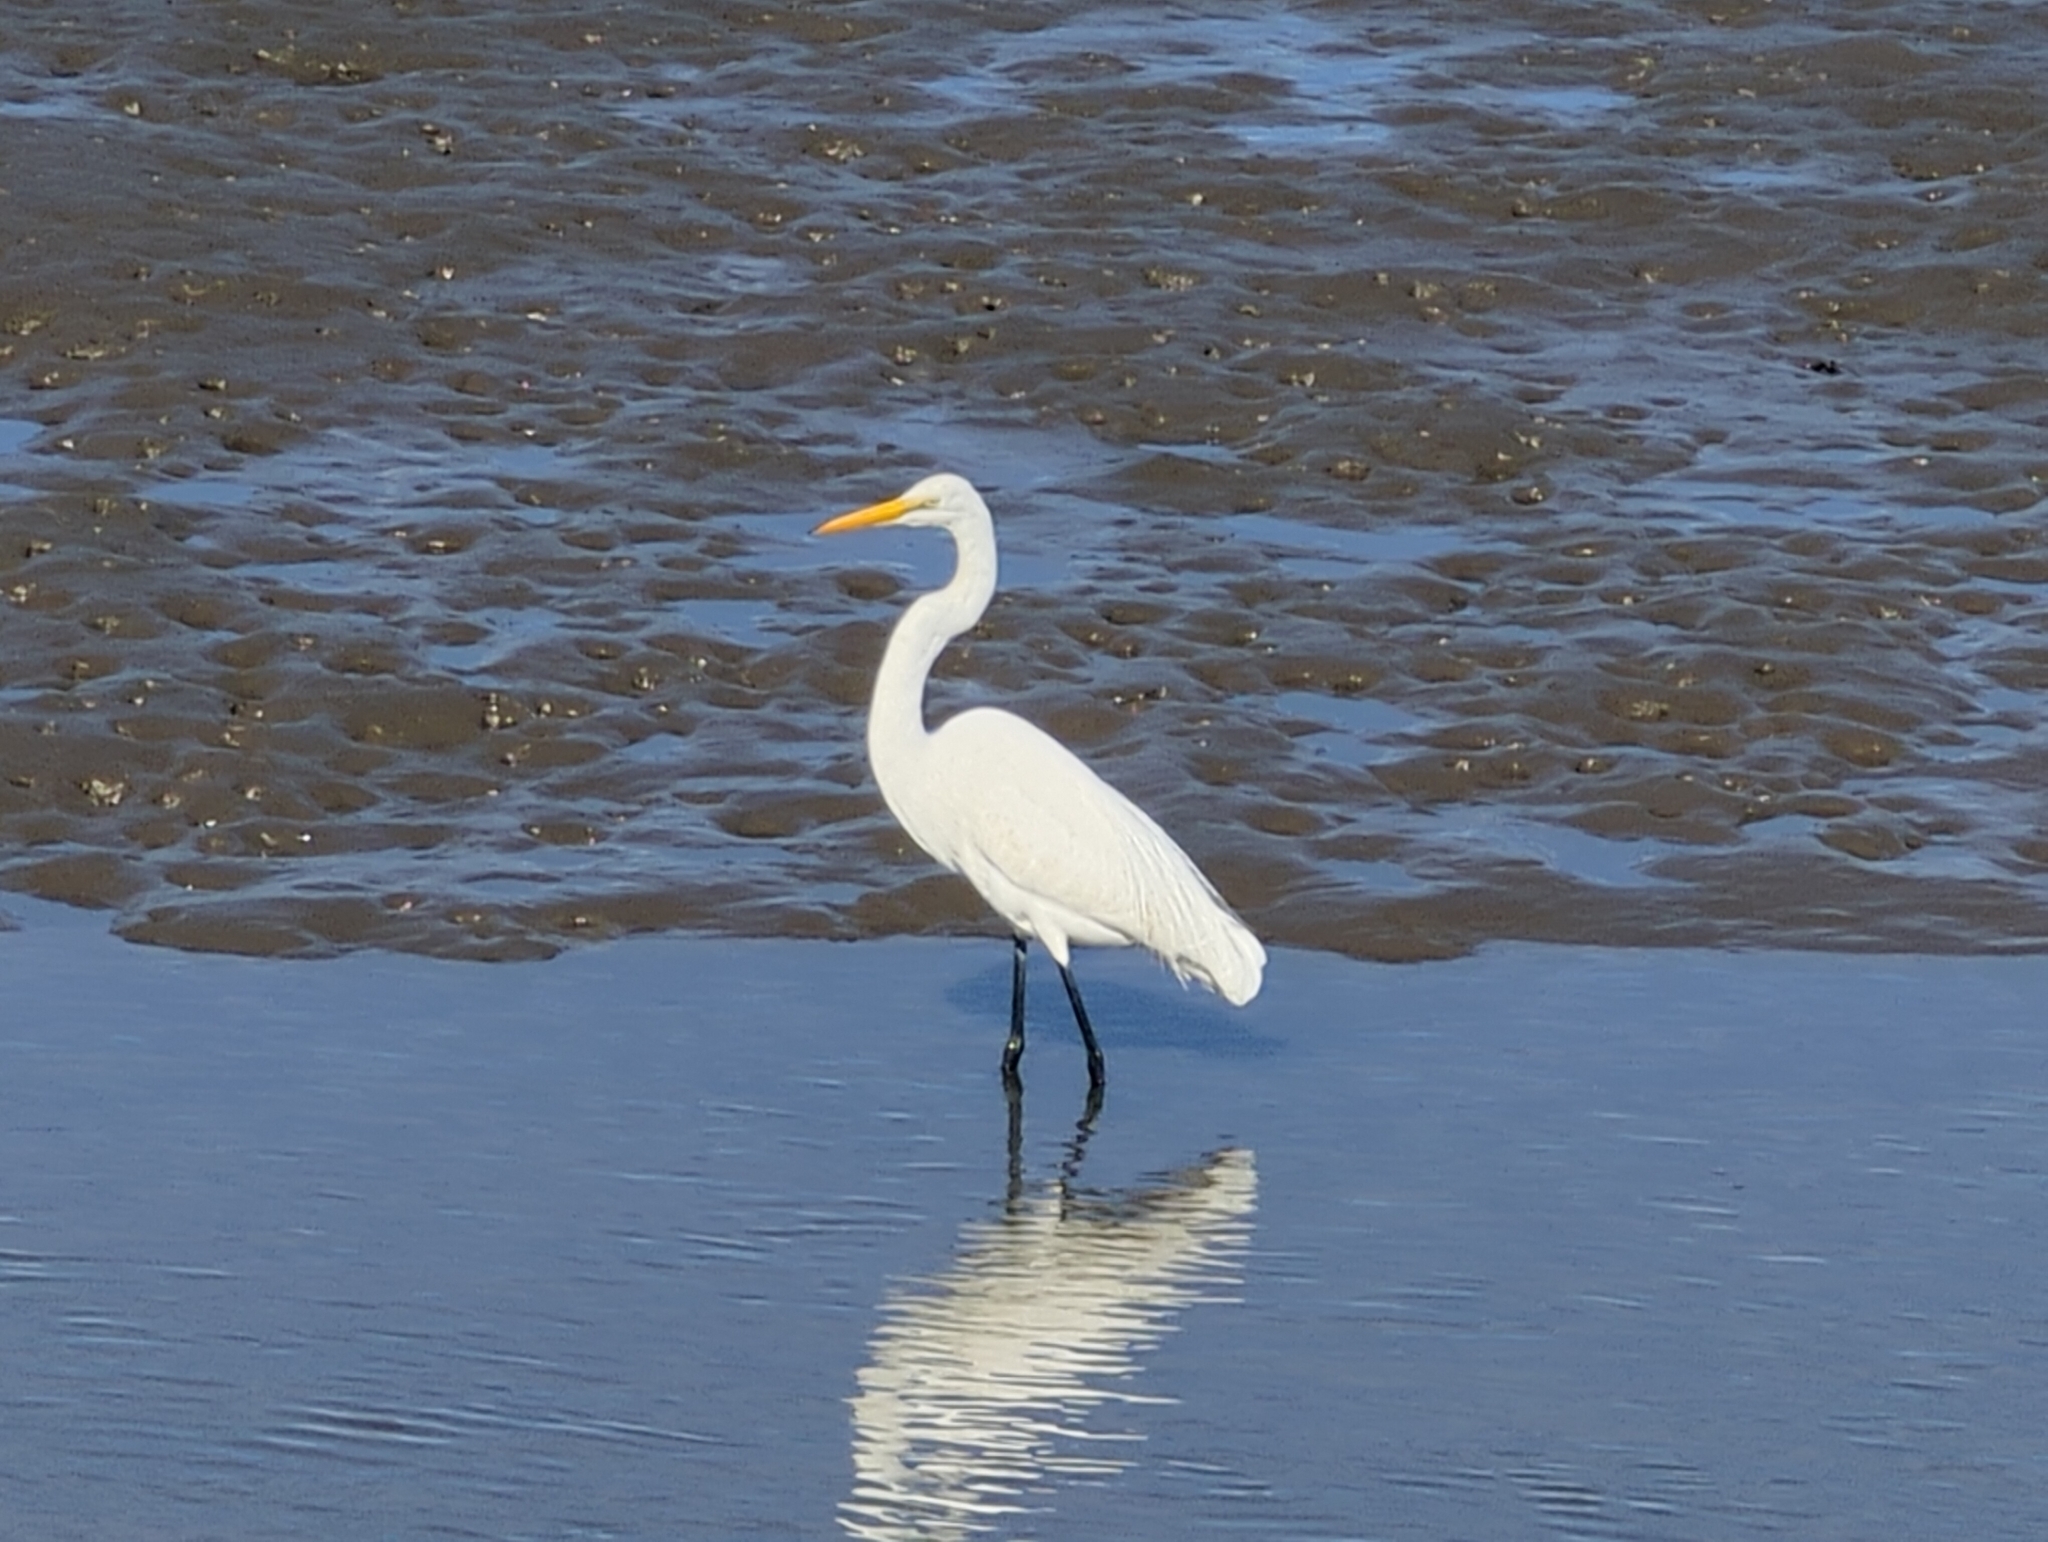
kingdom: Animalia
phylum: Chordata
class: Aves
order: Pelecaniformes
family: Ardeidae
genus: Ardea
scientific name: Ardea alba
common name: Great egret
